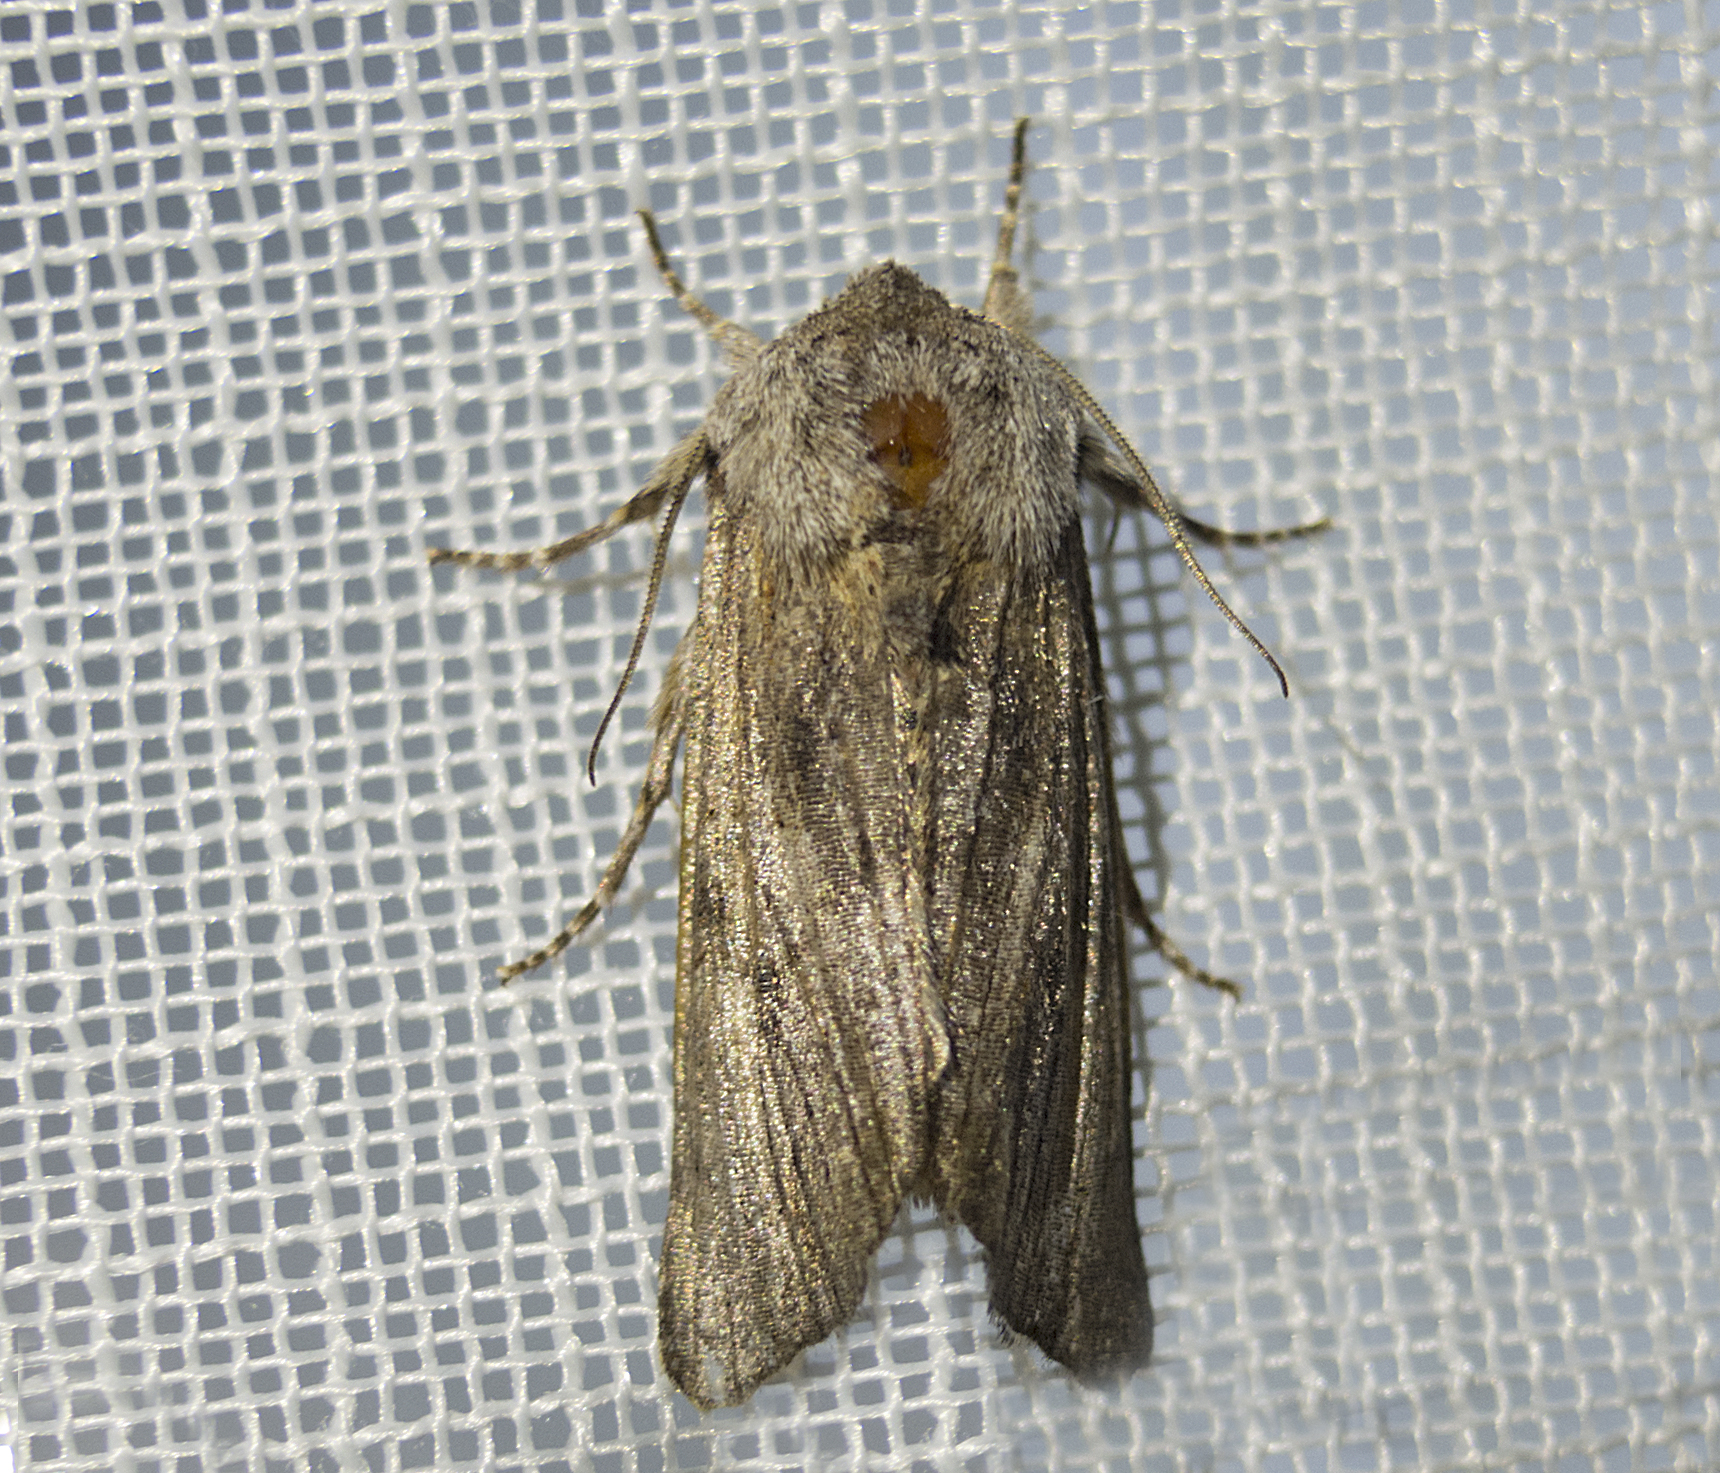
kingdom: Animalia
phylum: Arthropoda
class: Insecta
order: Lepidoptera
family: Noctuidae
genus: Egira
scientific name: Egira
